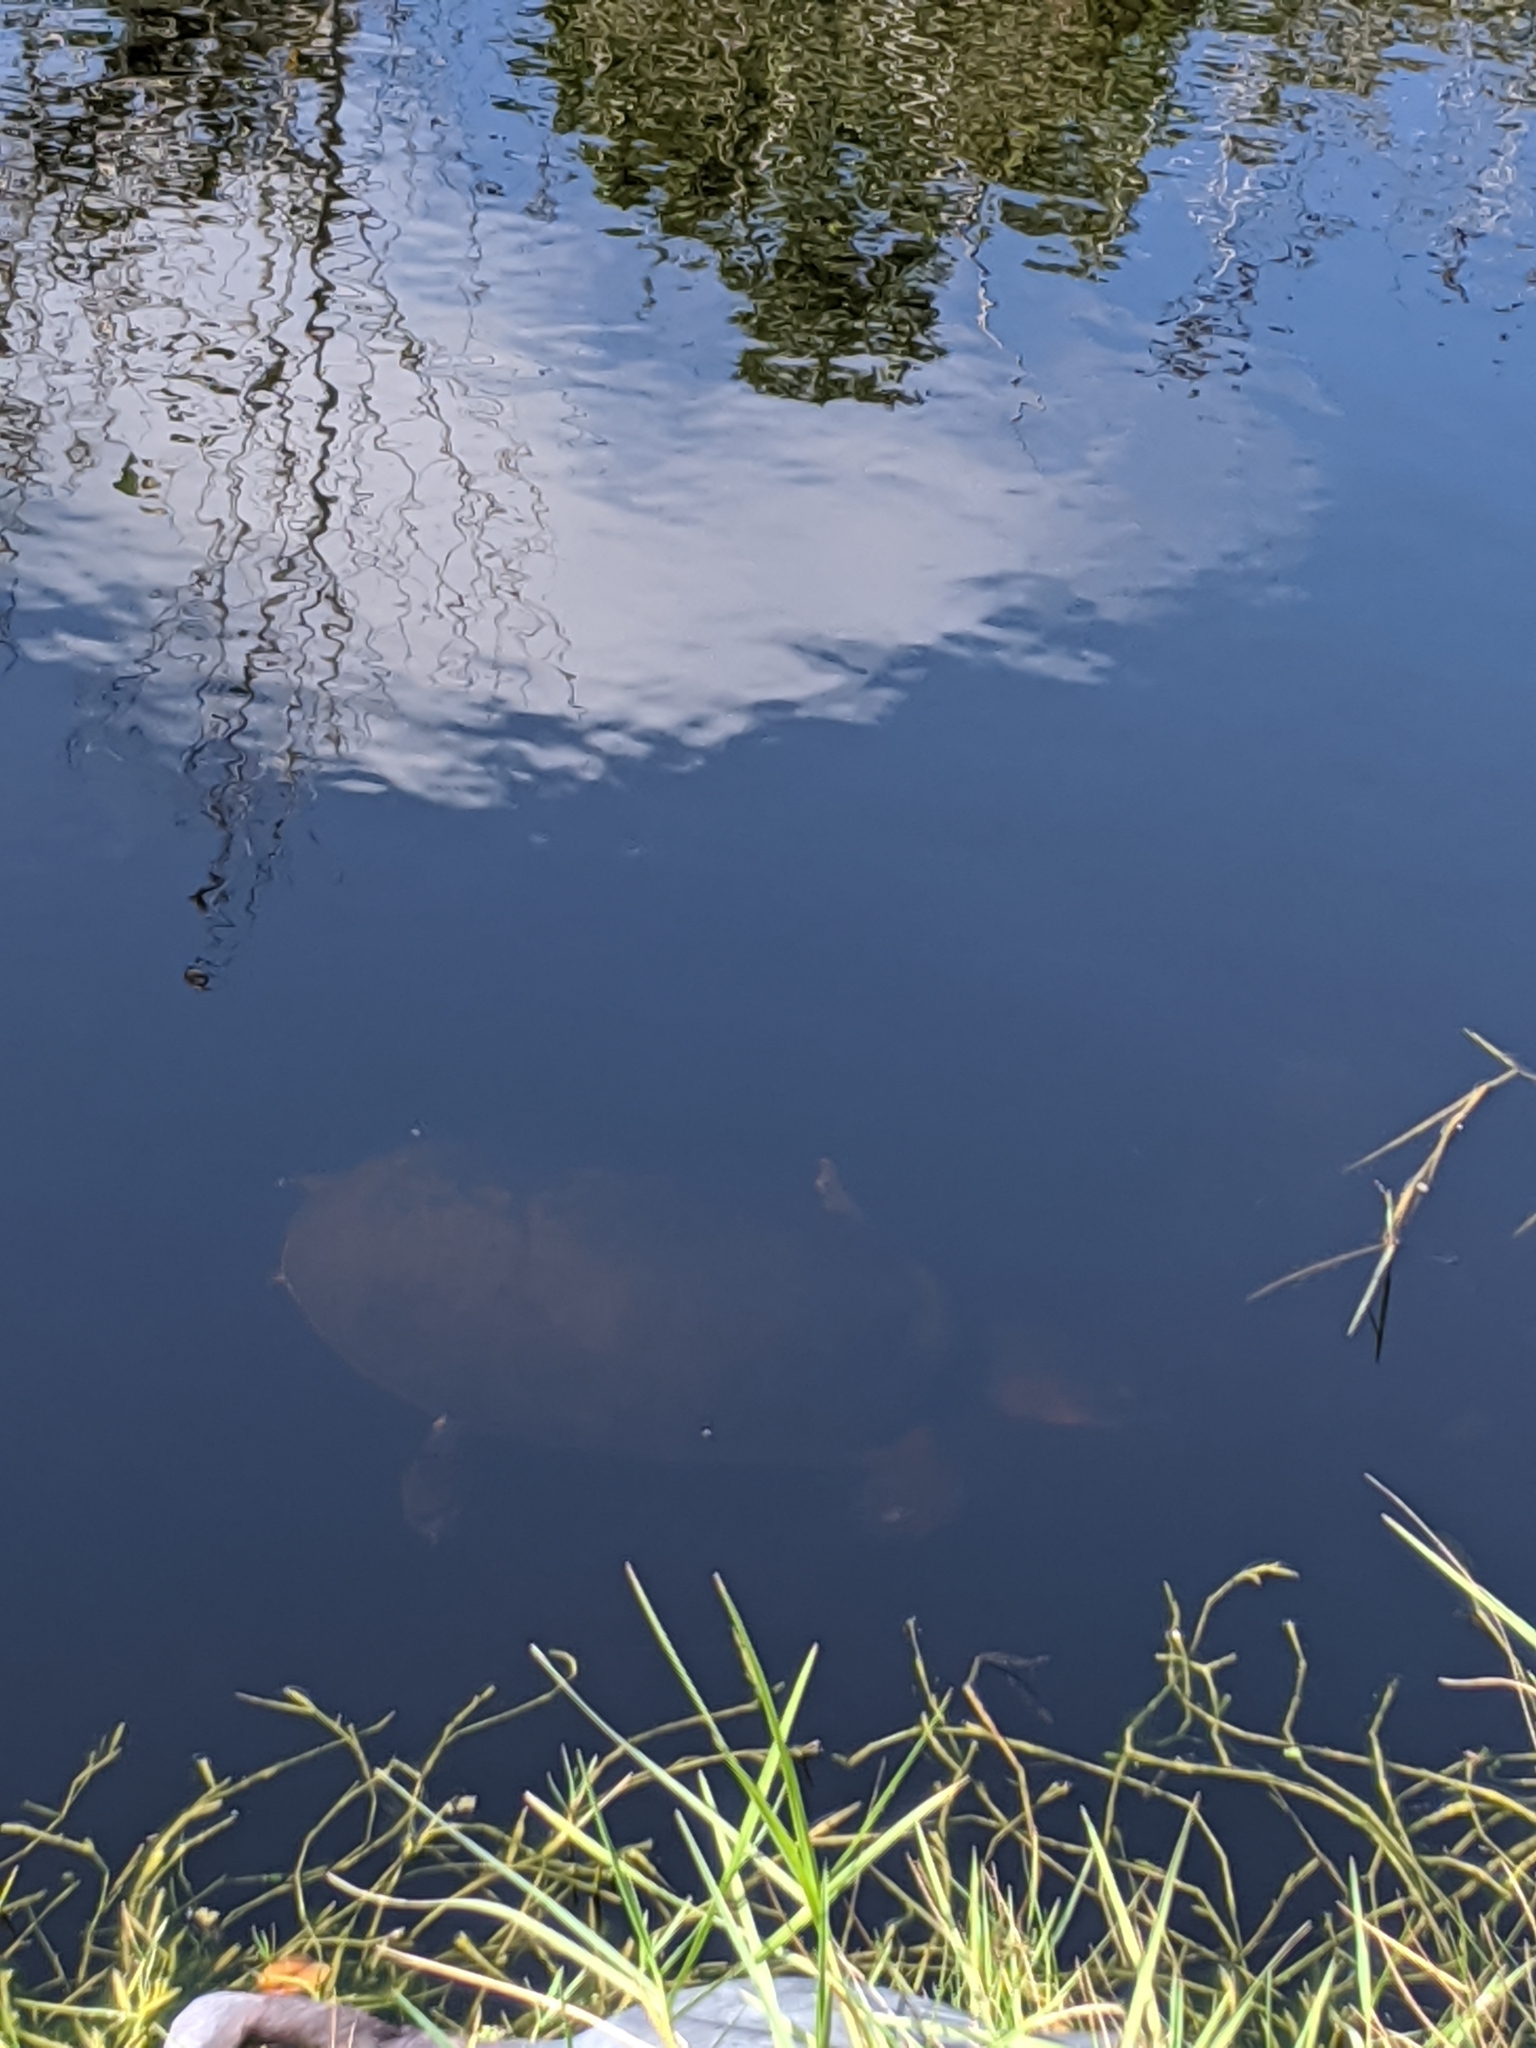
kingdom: Animalia
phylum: Chordata
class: Testudines
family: Trionychidae
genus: Apalone
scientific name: Apalone ferox
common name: Florida softshell turtle
